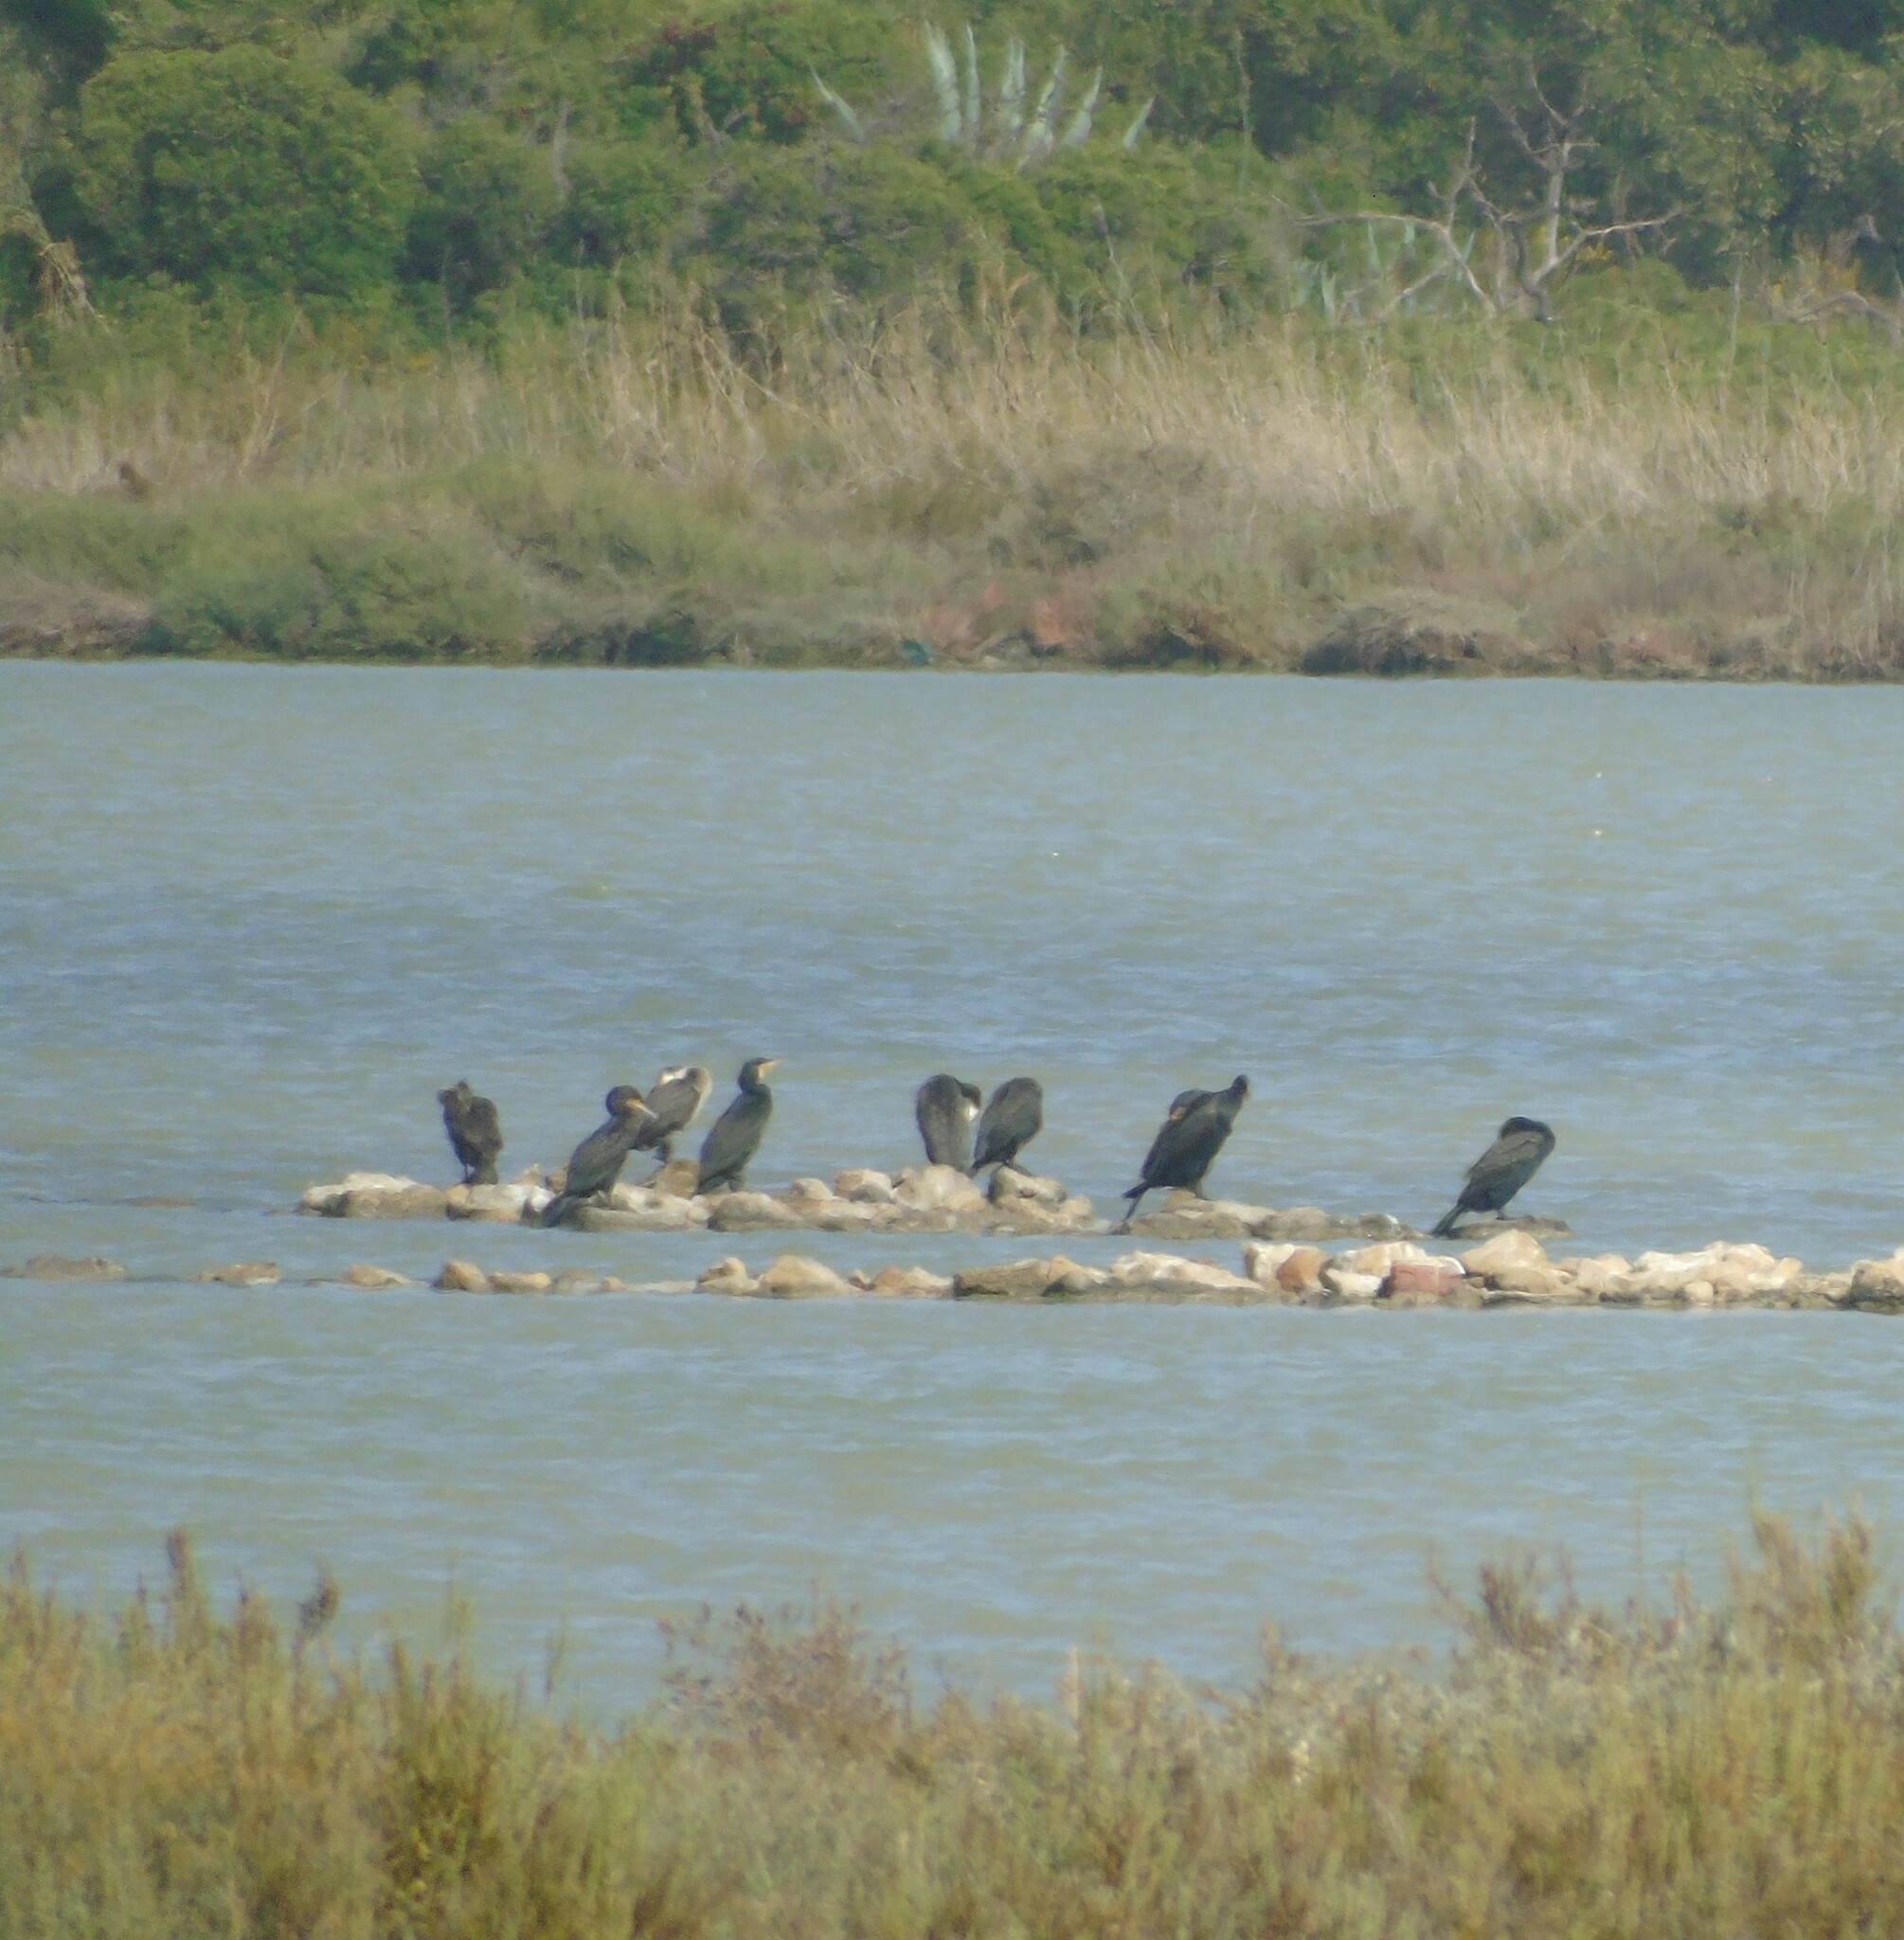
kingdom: Animalia
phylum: Chordata
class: Aves
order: Suliformes
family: Phalacrocoracidae
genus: Phalacrocorax
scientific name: Phalacrocorax carbo
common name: Great cormorant
